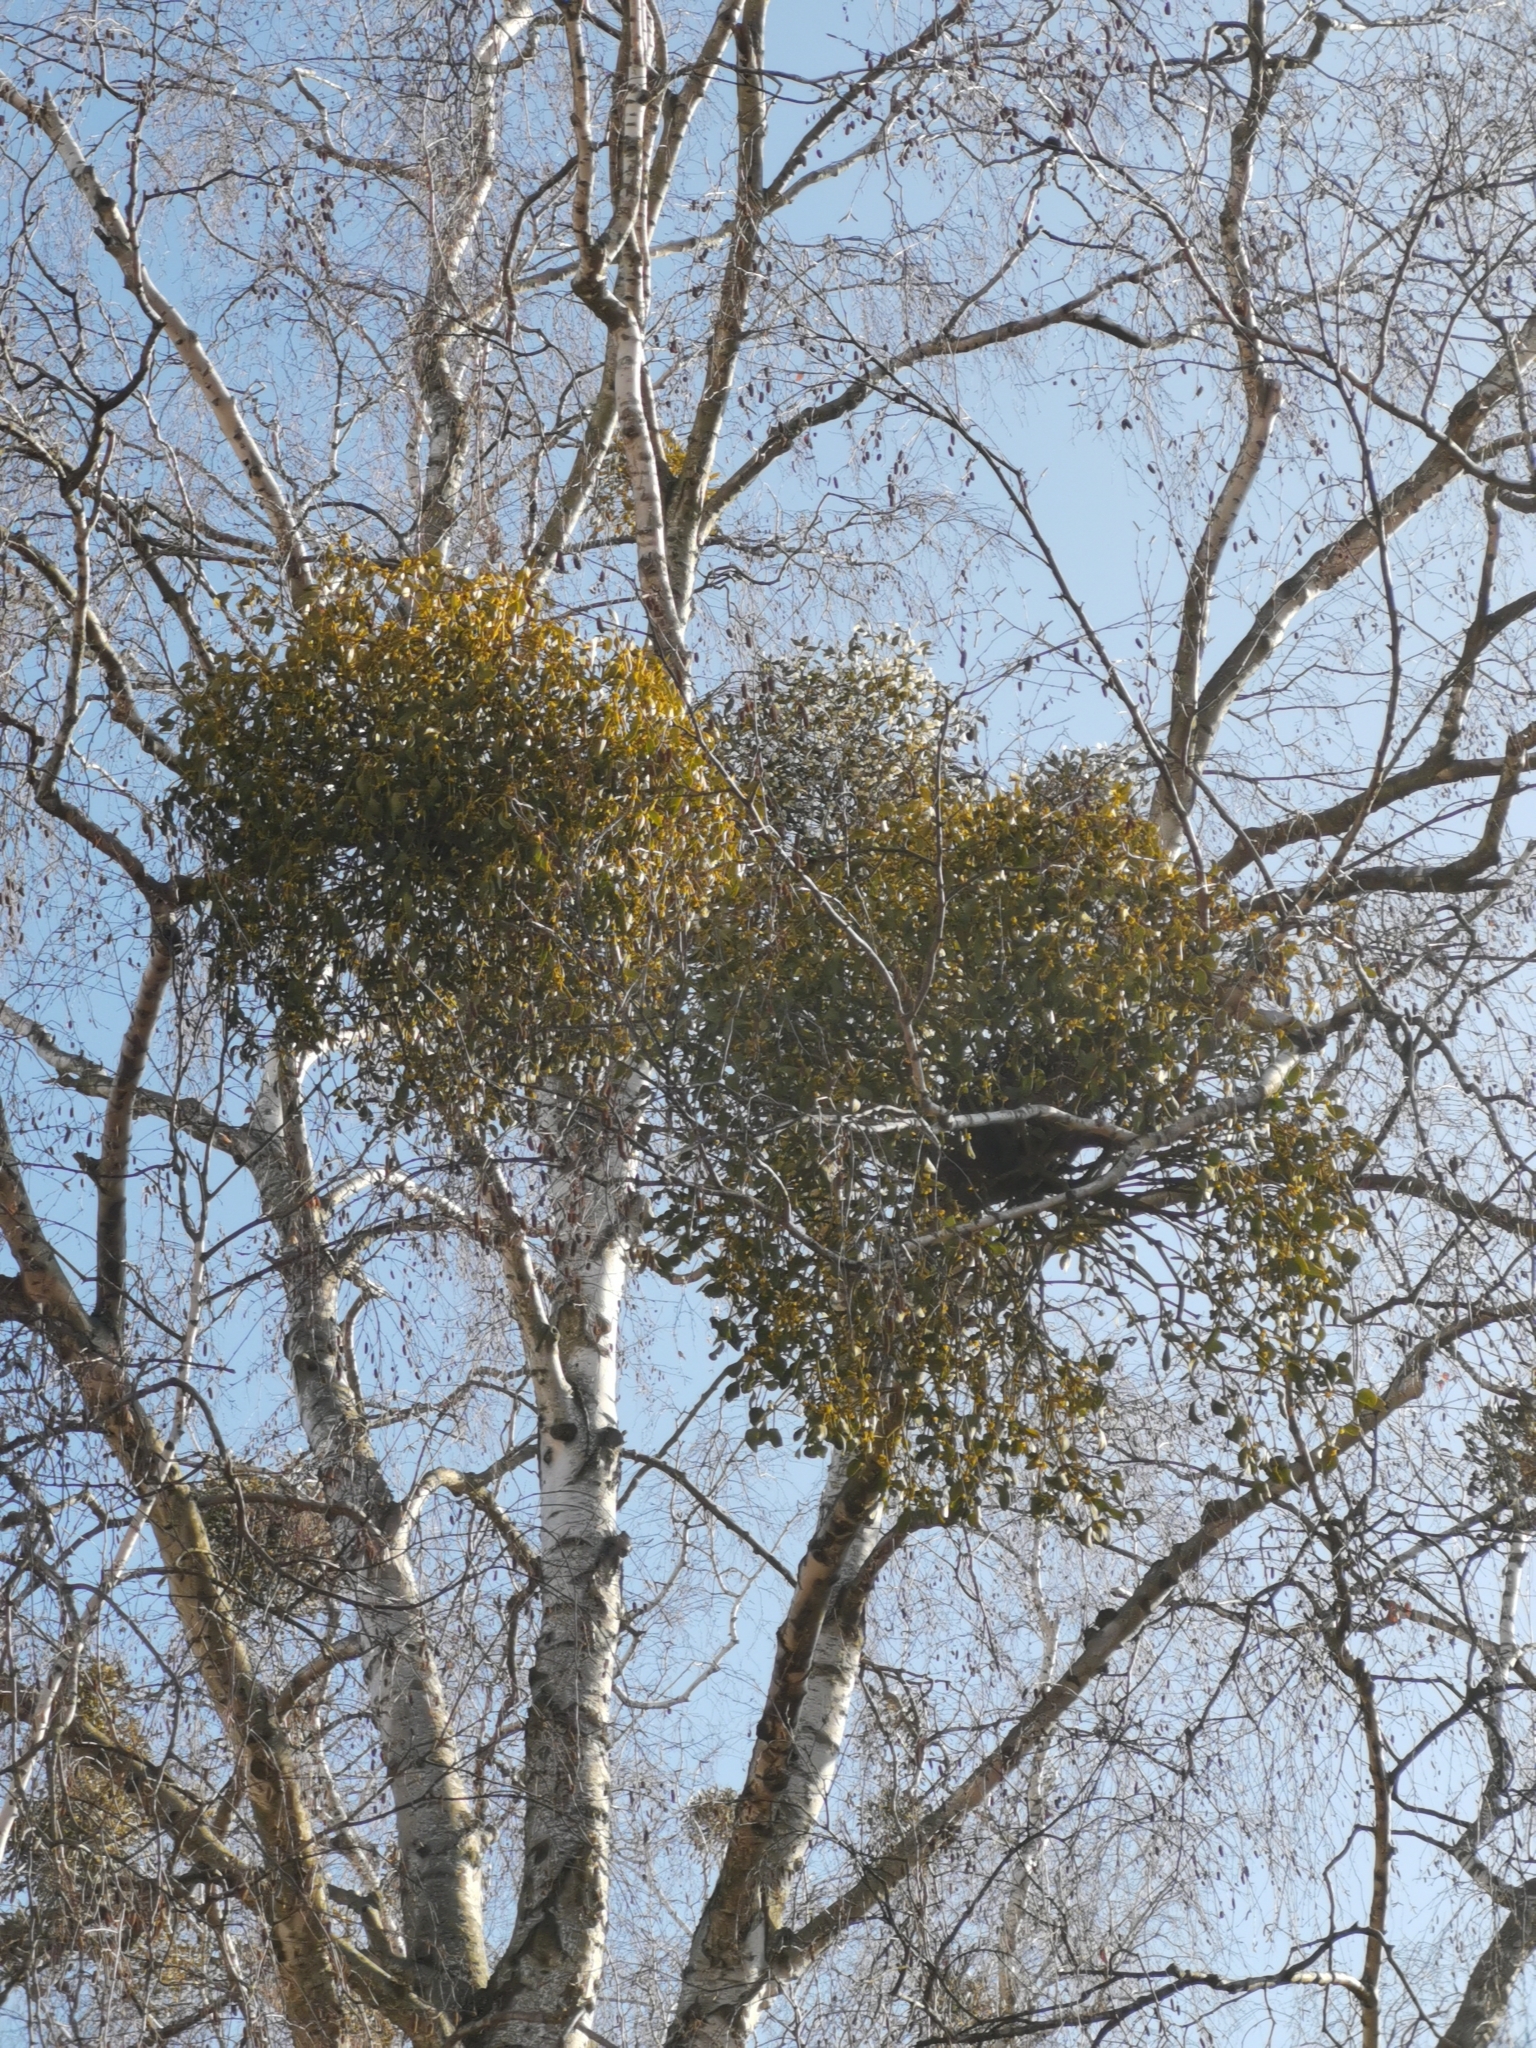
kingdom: Plantae
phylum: Tracheophyta
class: Magnoliopsida
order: Santalales
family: Viscaceae
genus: Viscum
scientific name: Viscum album
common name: Mistletoe
